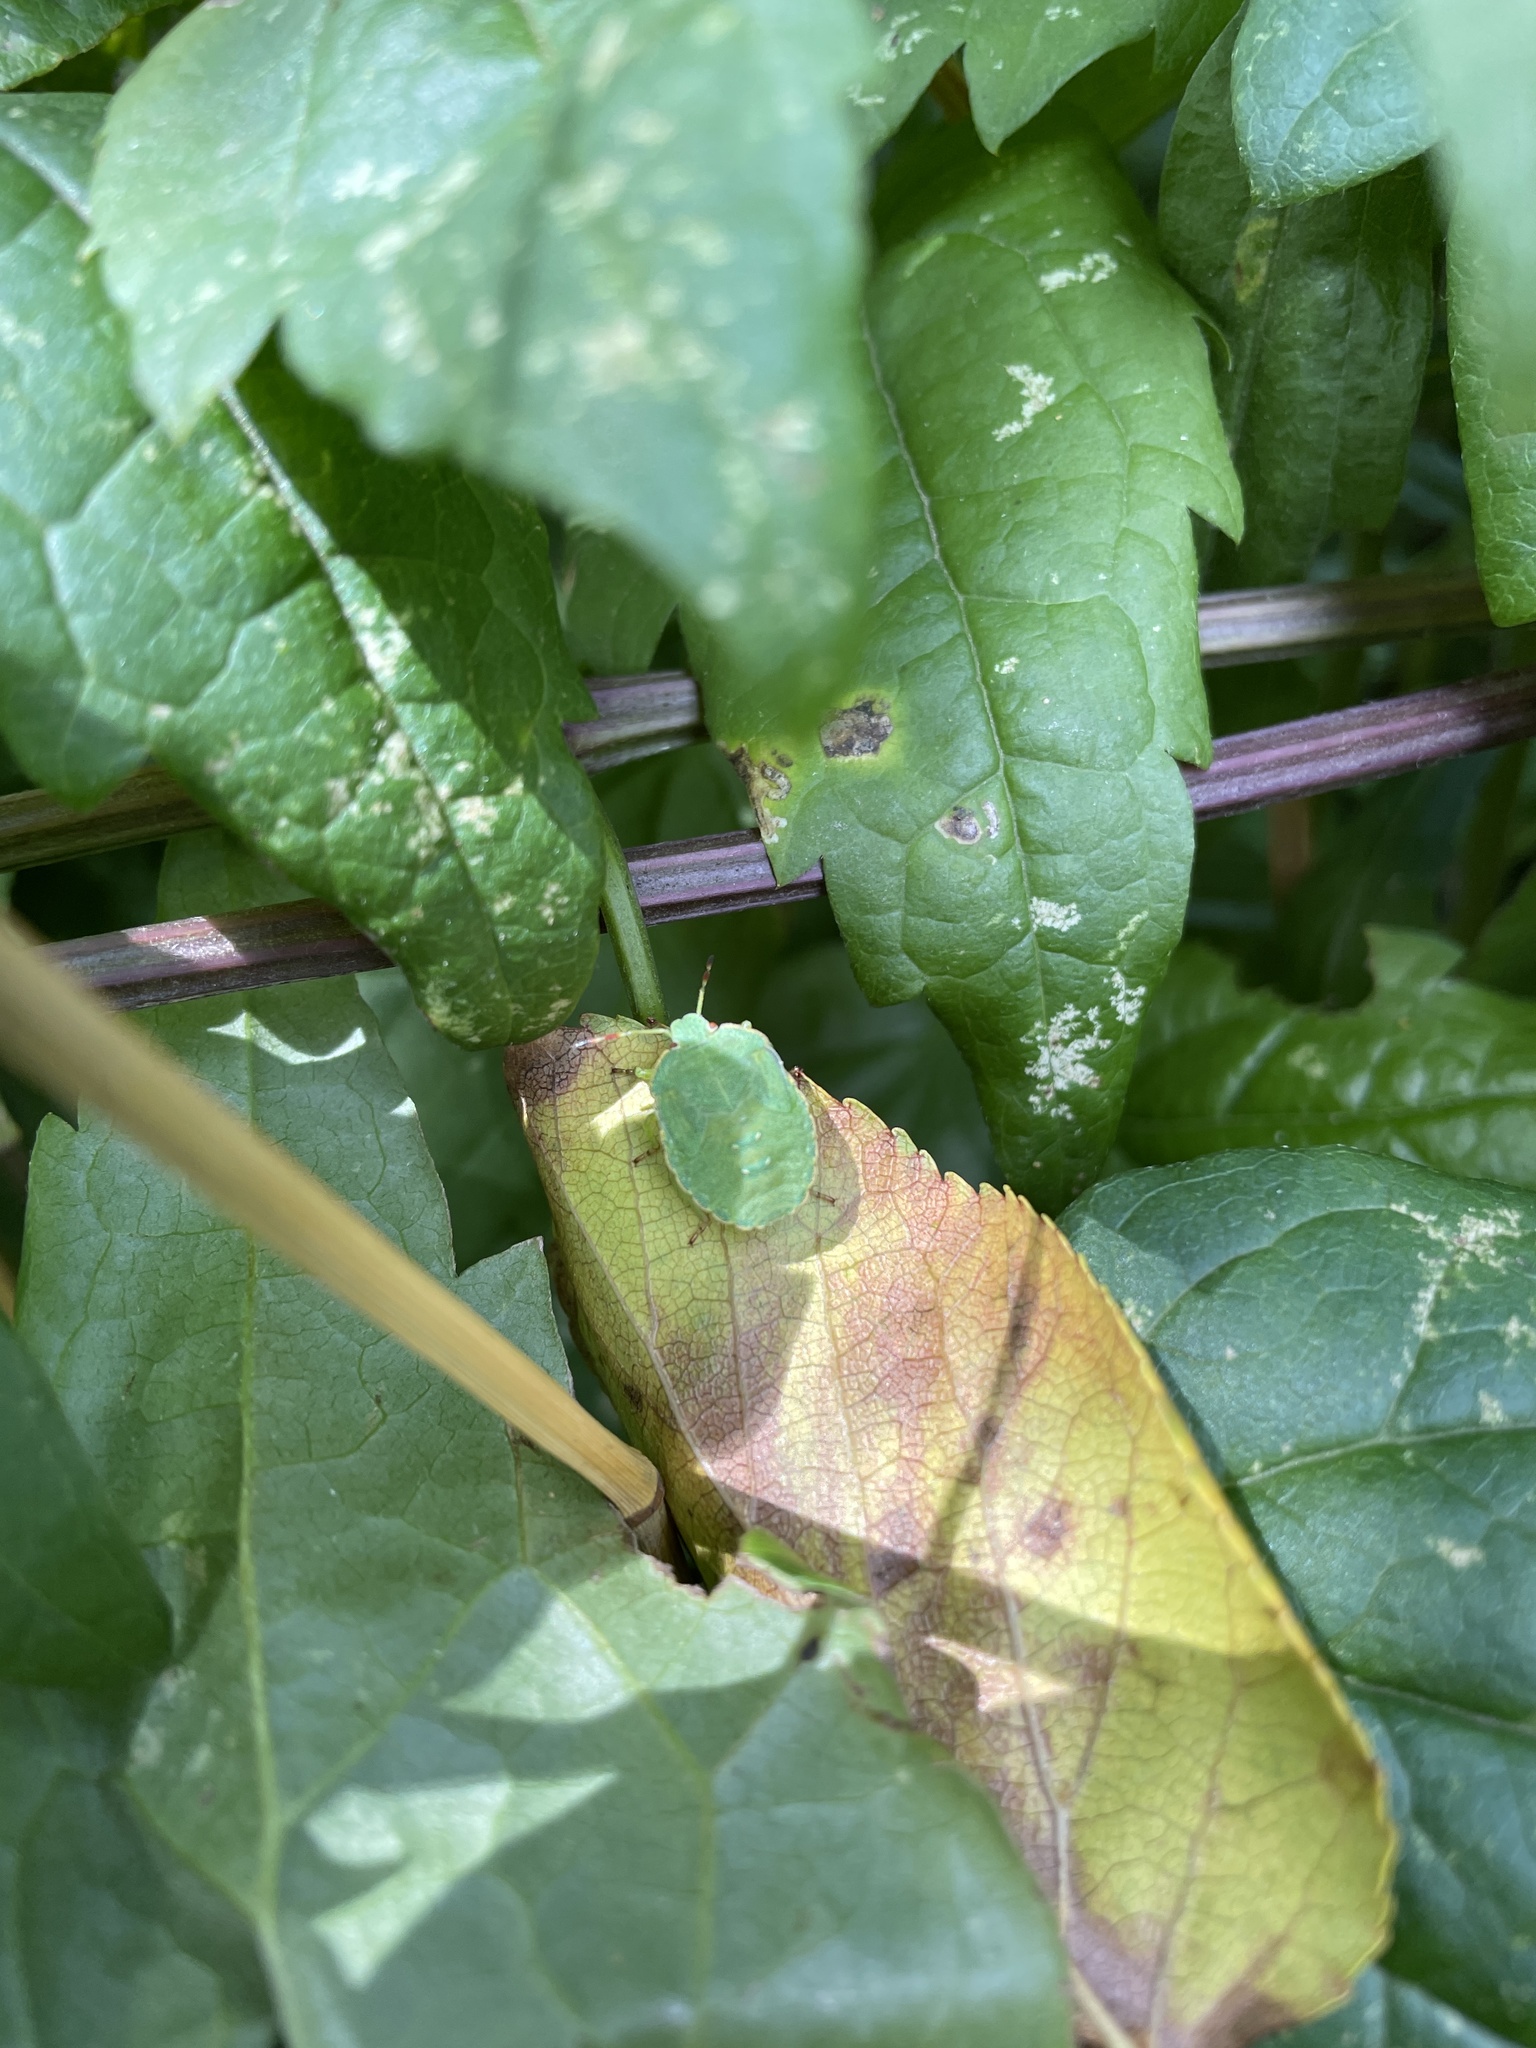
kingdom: Animalia
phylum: Arthropoda
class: Insecta
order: Hemiptera
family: Pentatomidae
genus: Palomena
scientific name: Palomena prasina
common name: Green shieldbug
